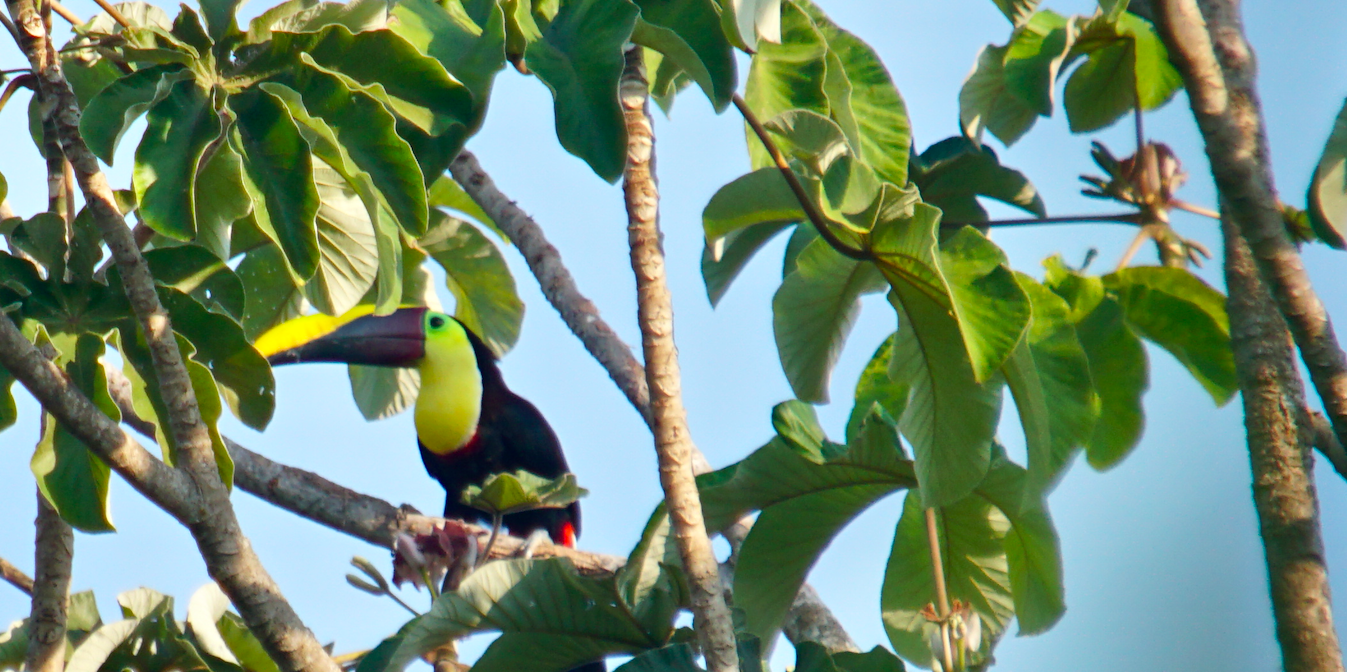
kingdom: Animalia
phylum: Chordata
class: Aves
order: Piciformes
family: Ramphastidae
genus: Ramphastos
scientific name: Ramphastos ambiguus
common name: Yellow-throated toucan
